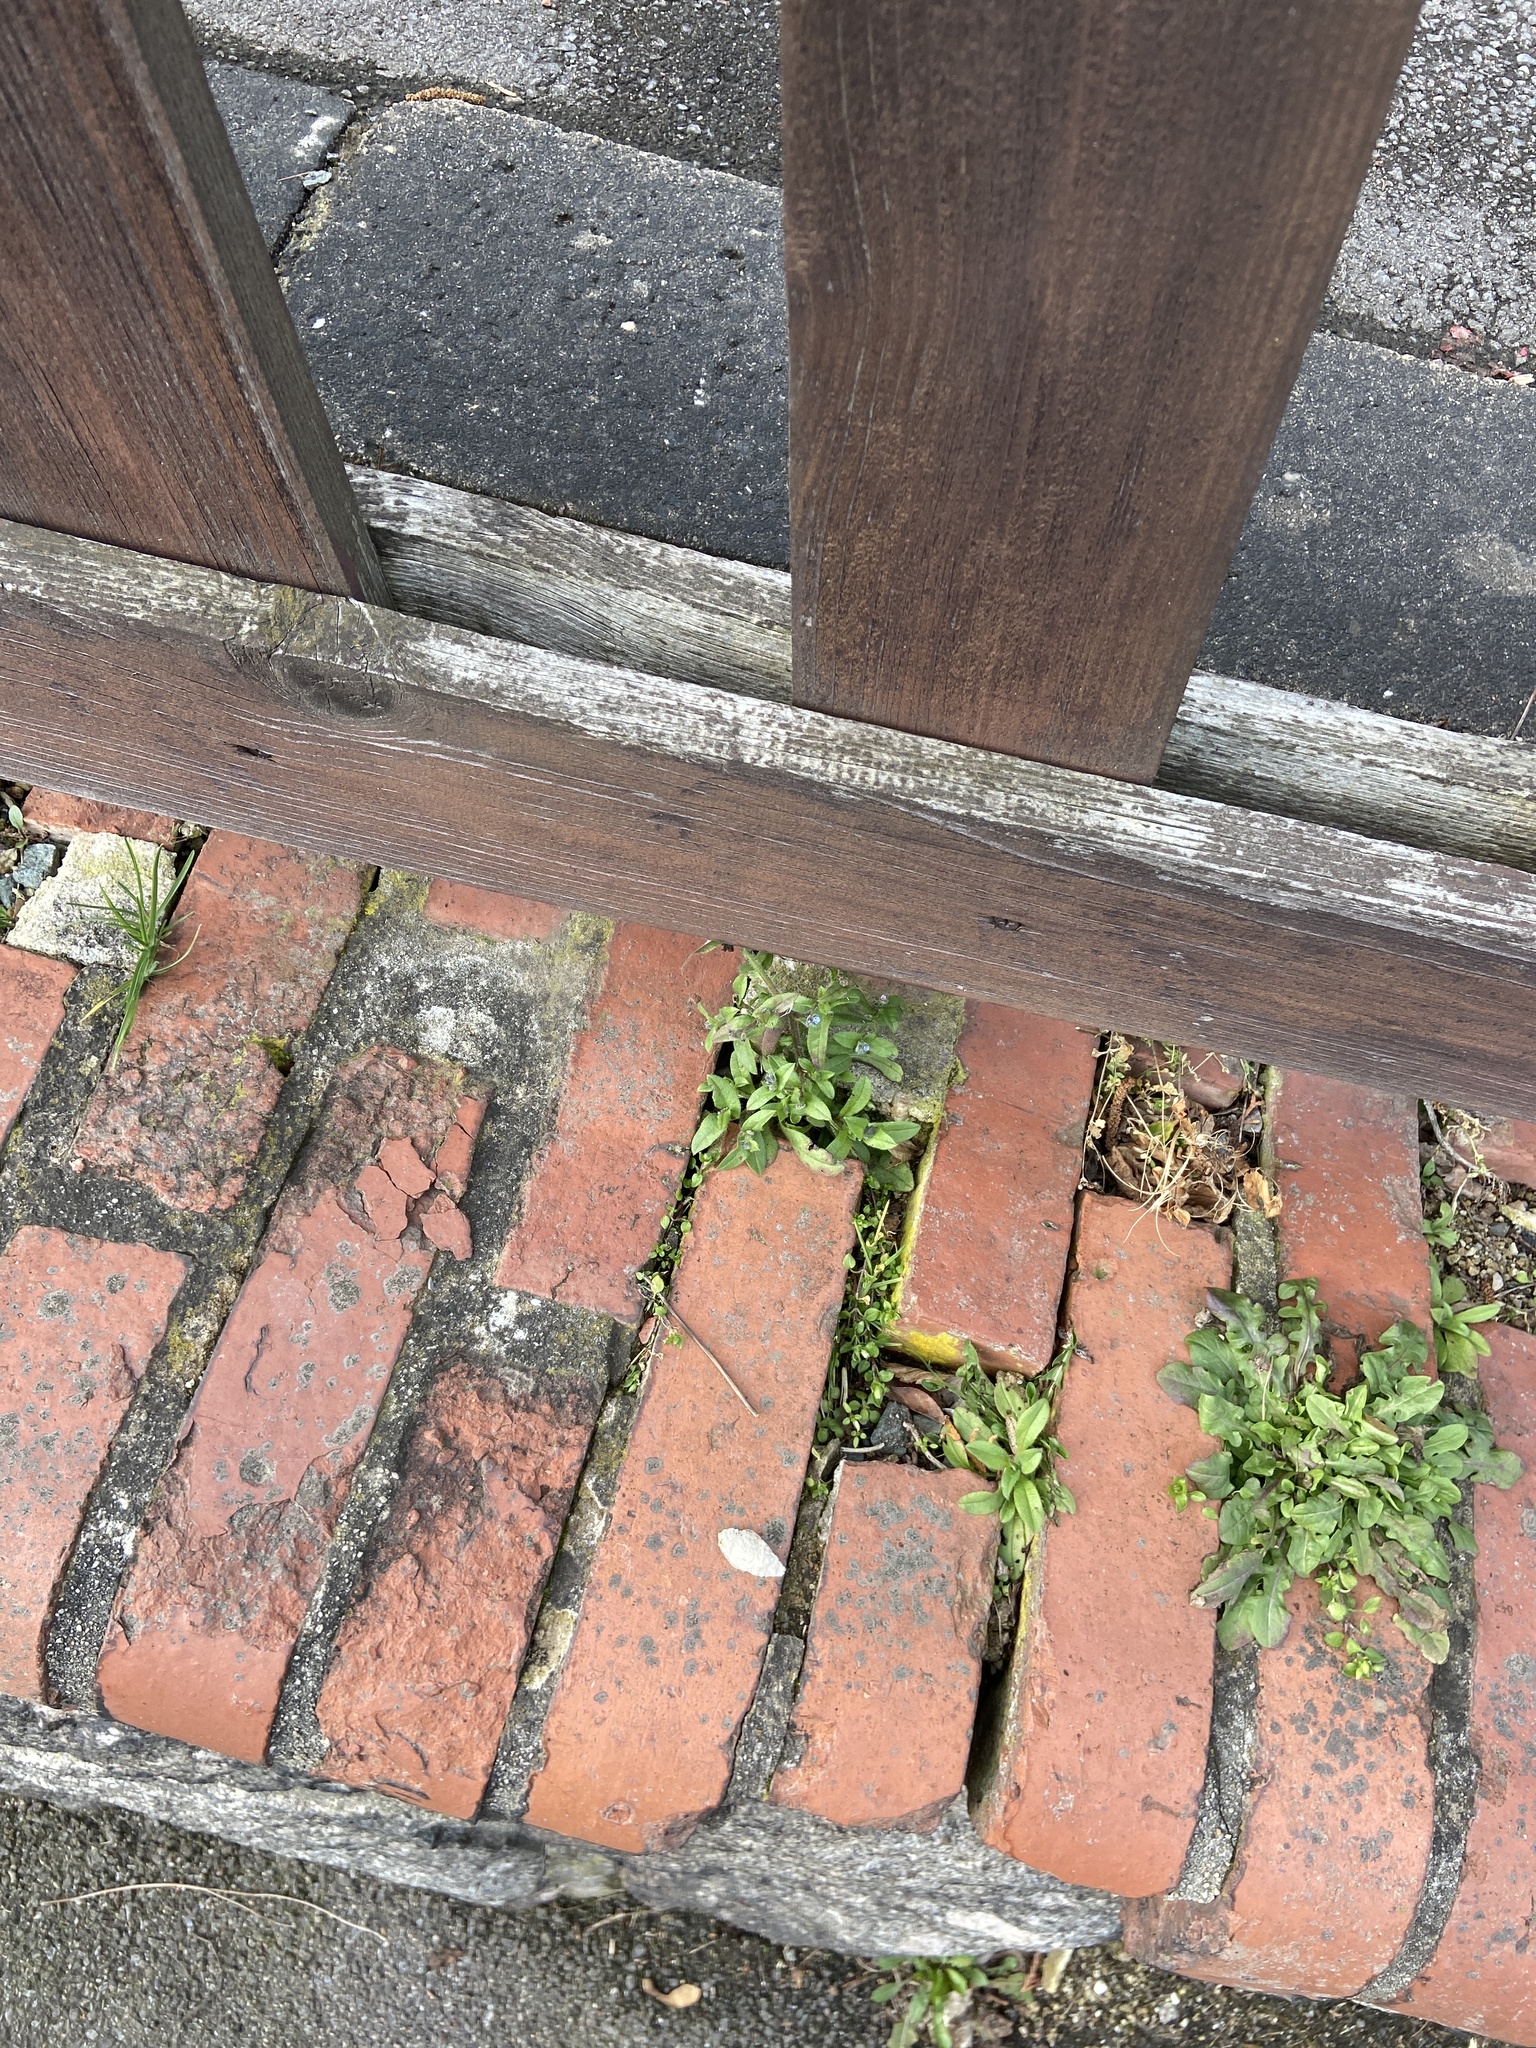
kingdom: Plantae
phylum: Tracheophyta
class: Magnoliopsida
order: Boraginales
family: Boraginaceae
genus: Myosotis
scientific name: Myosotis arvensis
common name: Field forget-me-not
